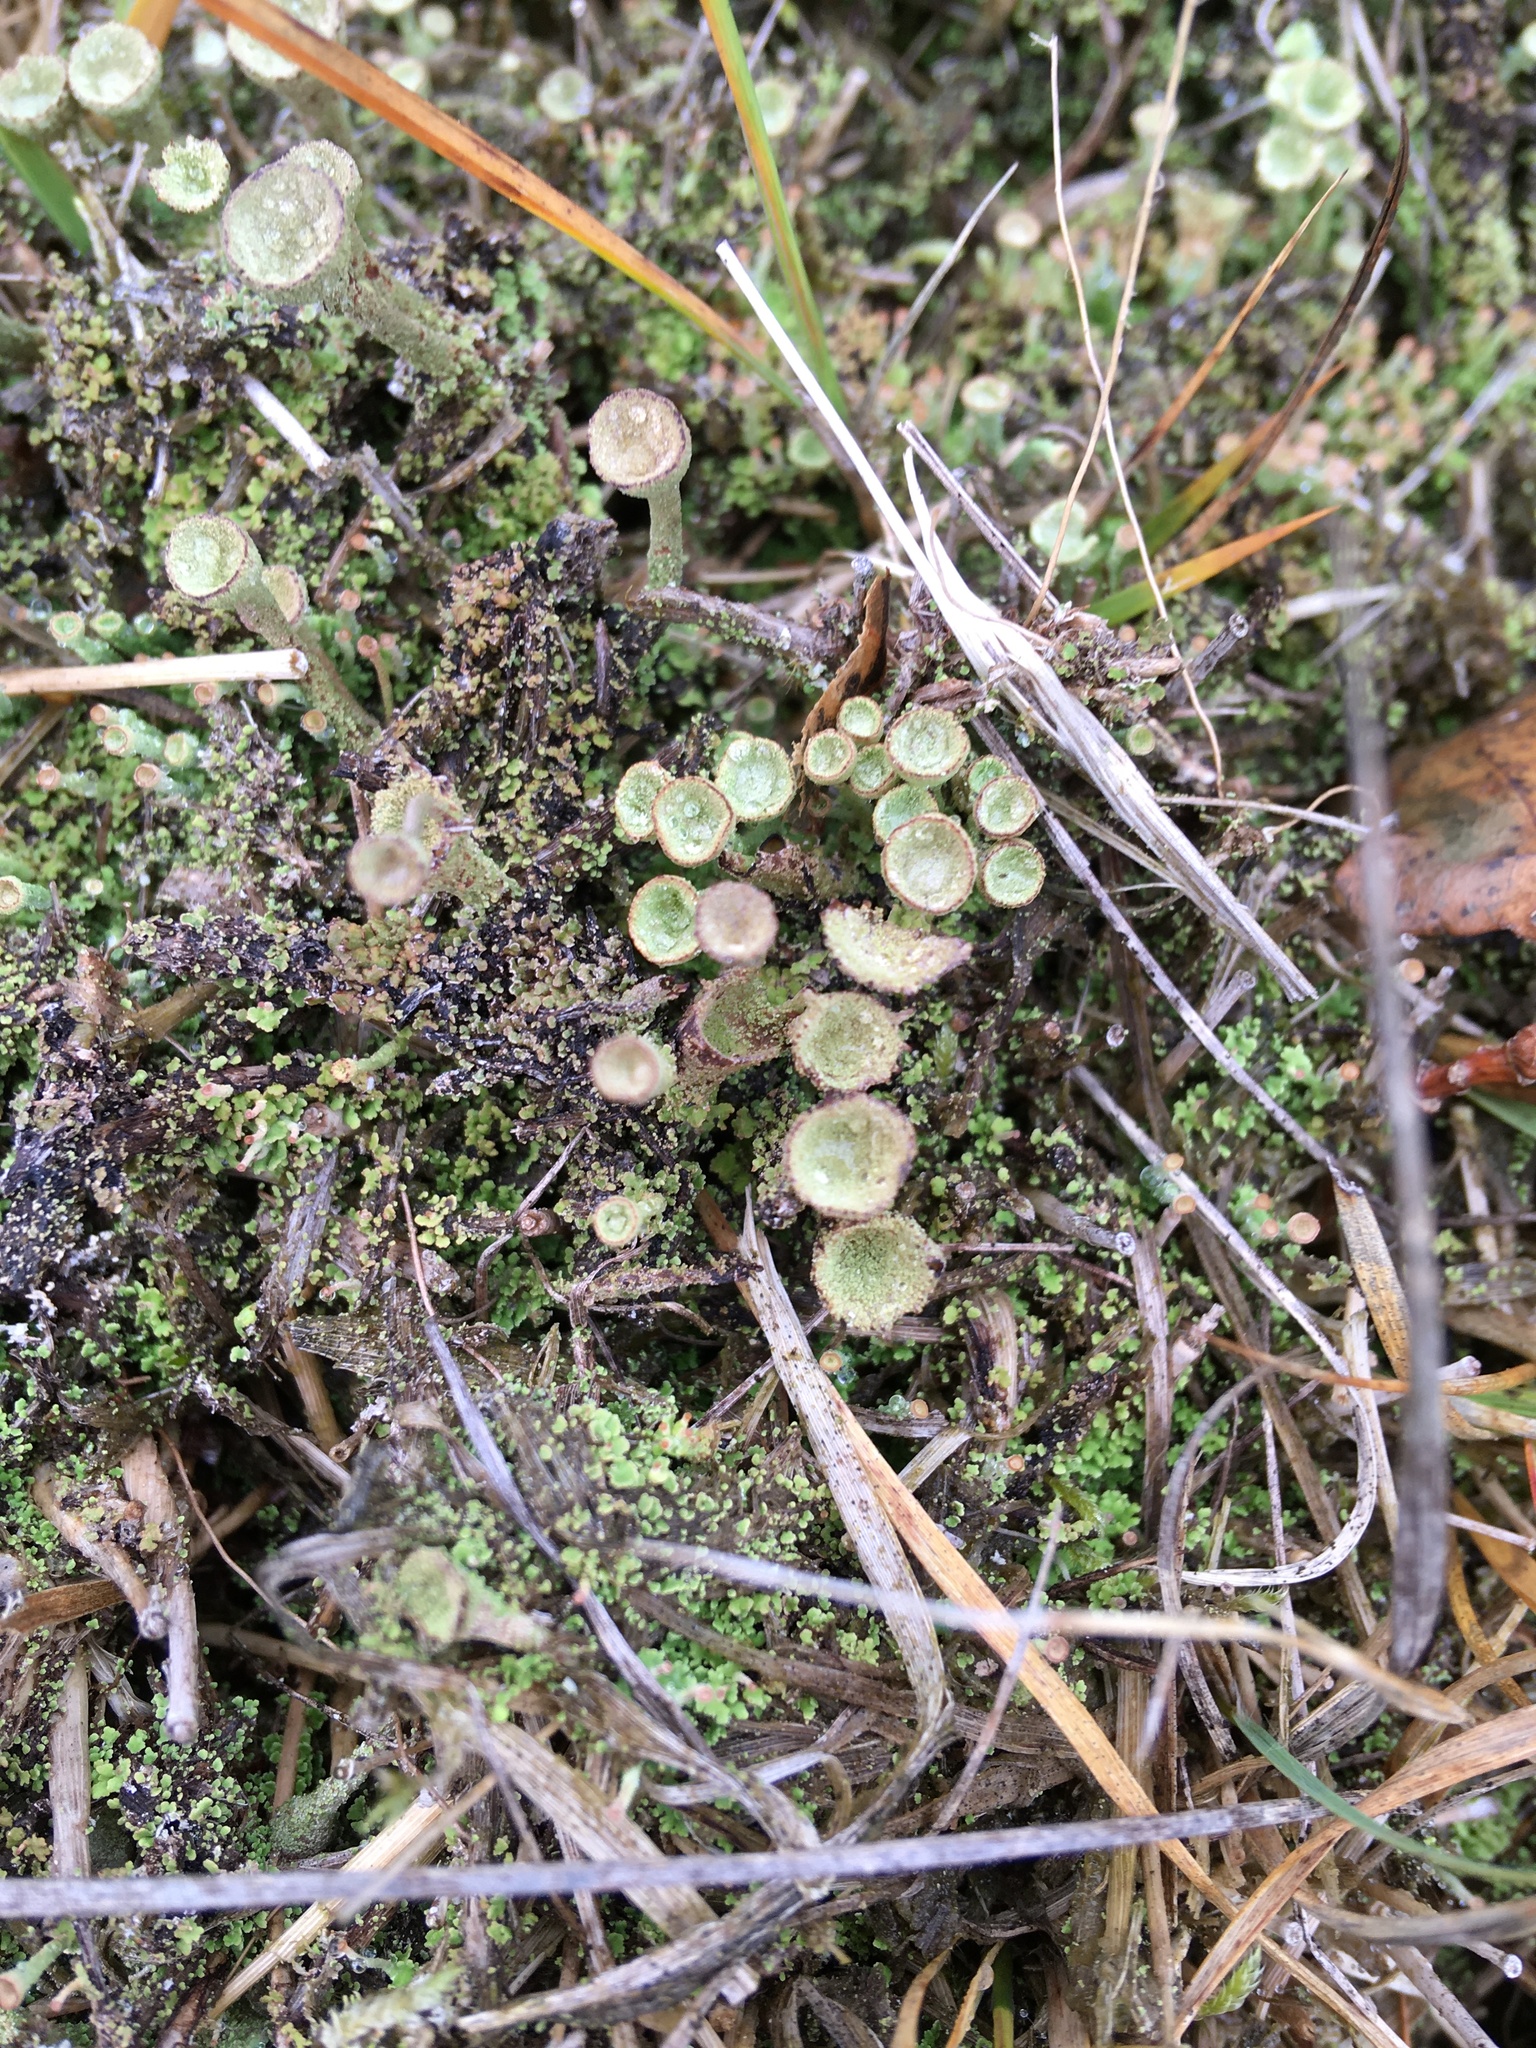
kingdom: Fungi
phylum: Ascomycota
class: Lecanoromycetes
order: Lecanorales
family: Cladoniaceae
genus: Cladonia
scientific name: Cladonia
